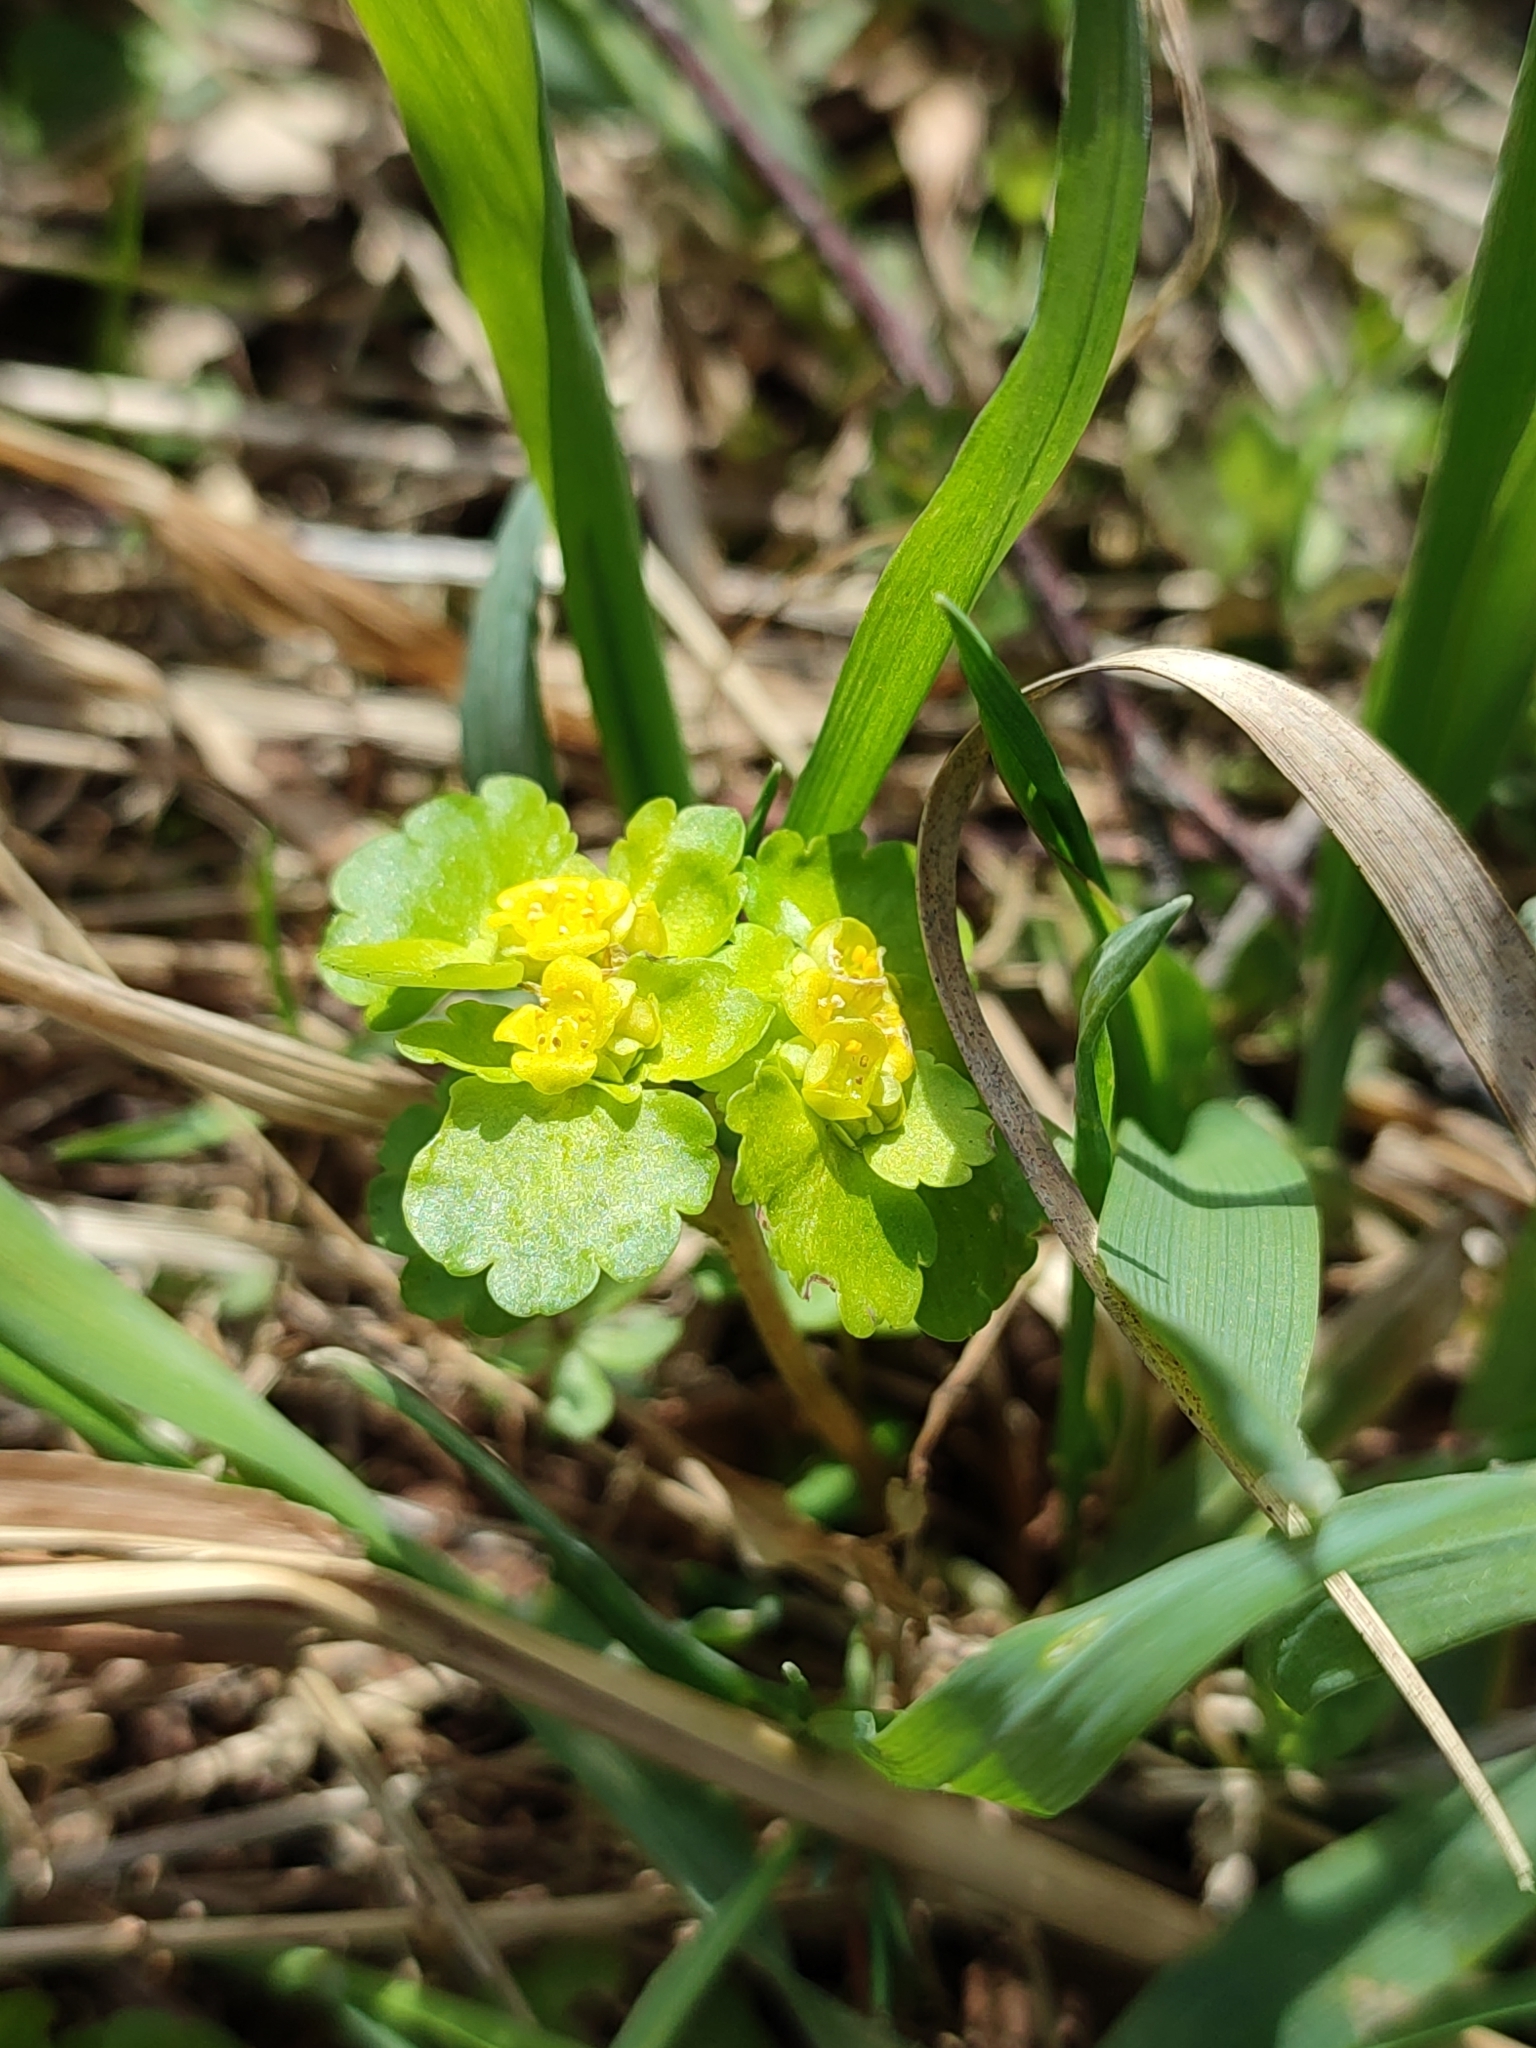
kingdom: Plantae
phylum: Tracheophyta
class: Magnoliopsida
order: Saxifragales
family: Saxifragaceae
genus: Chrysosplenium
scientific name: Chrysosplenium alternifolium
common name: Alternate-leaved golden-saxifrage
